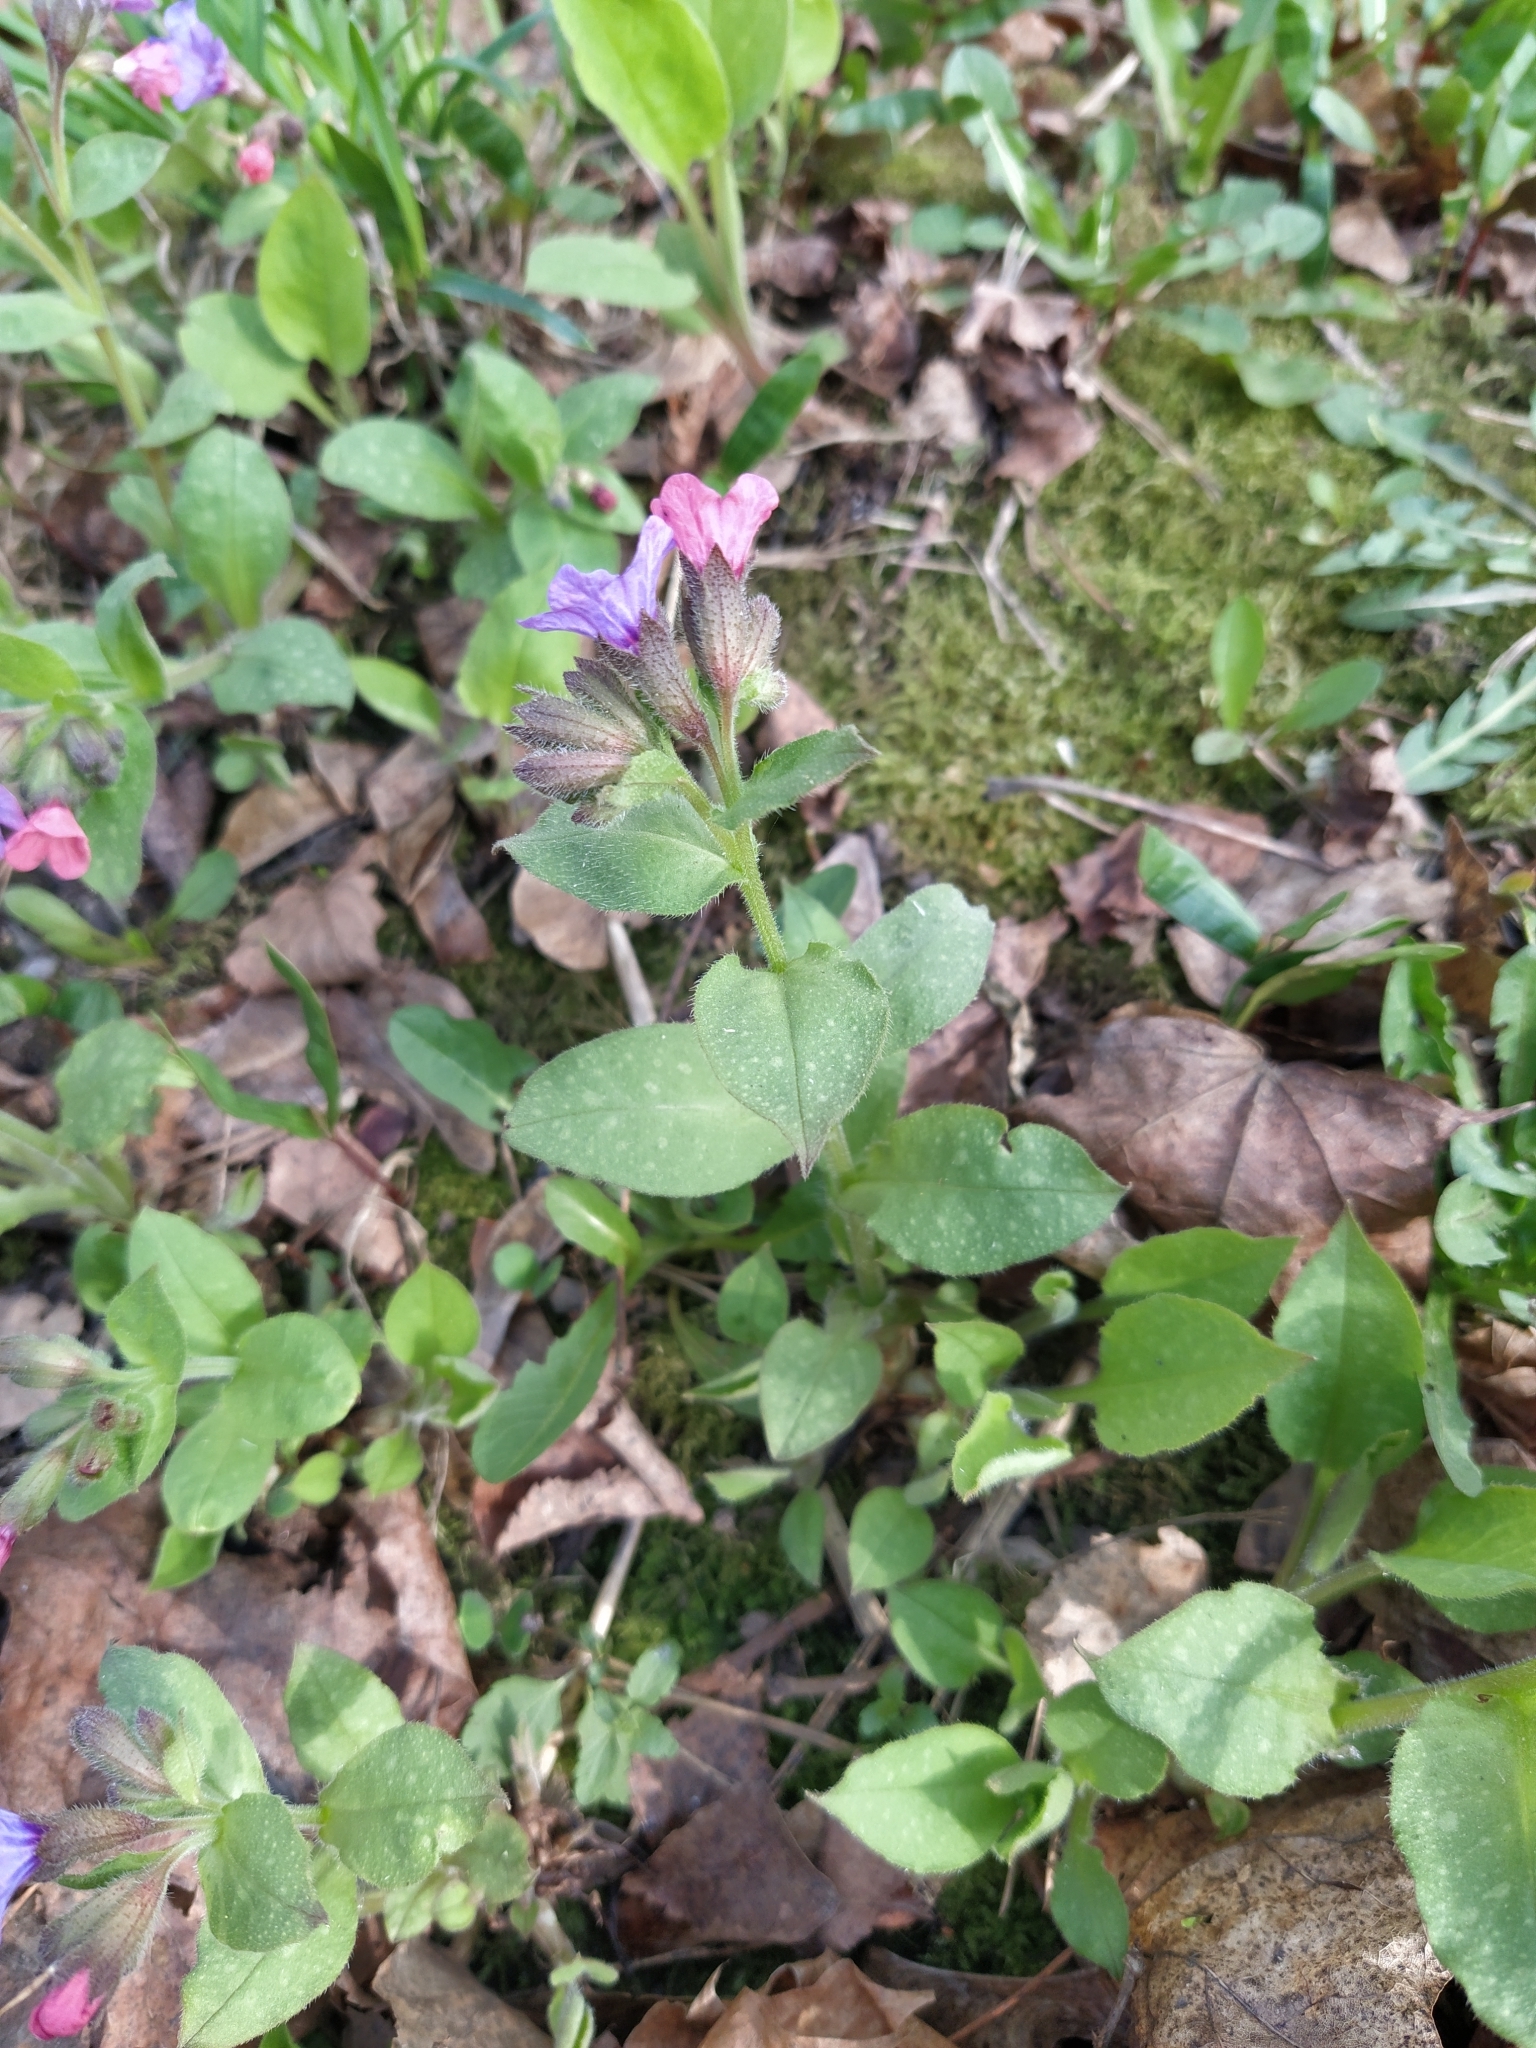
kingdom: Plantae
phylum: Tracheophyta
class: Magnoliopsida
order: Boraginales
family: Boraginaceae
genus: Pulmonaria
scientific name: Pulmonaria obscura
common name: Suffolk lungwort
